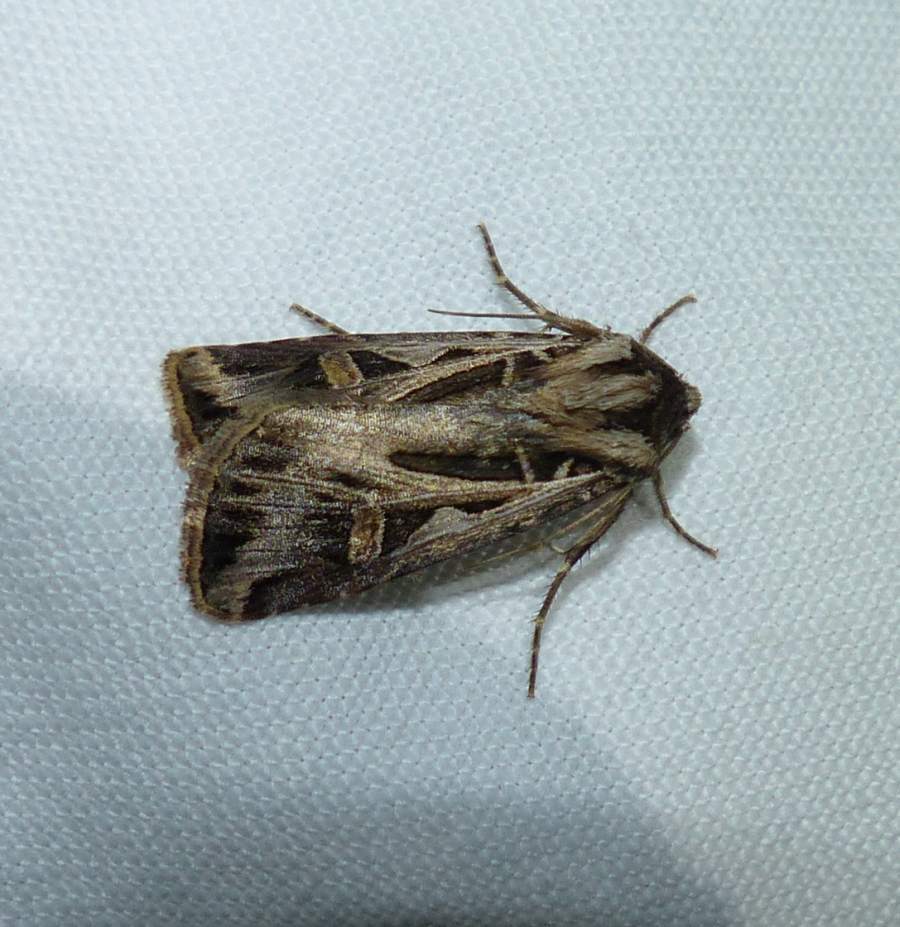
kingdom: Animalia
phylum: Arthropoda
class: Insecta
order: Lepidoptera
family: Noctuidae
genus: Feltia
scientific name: Feltia jaculifera
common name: Dingy cutworm moth
